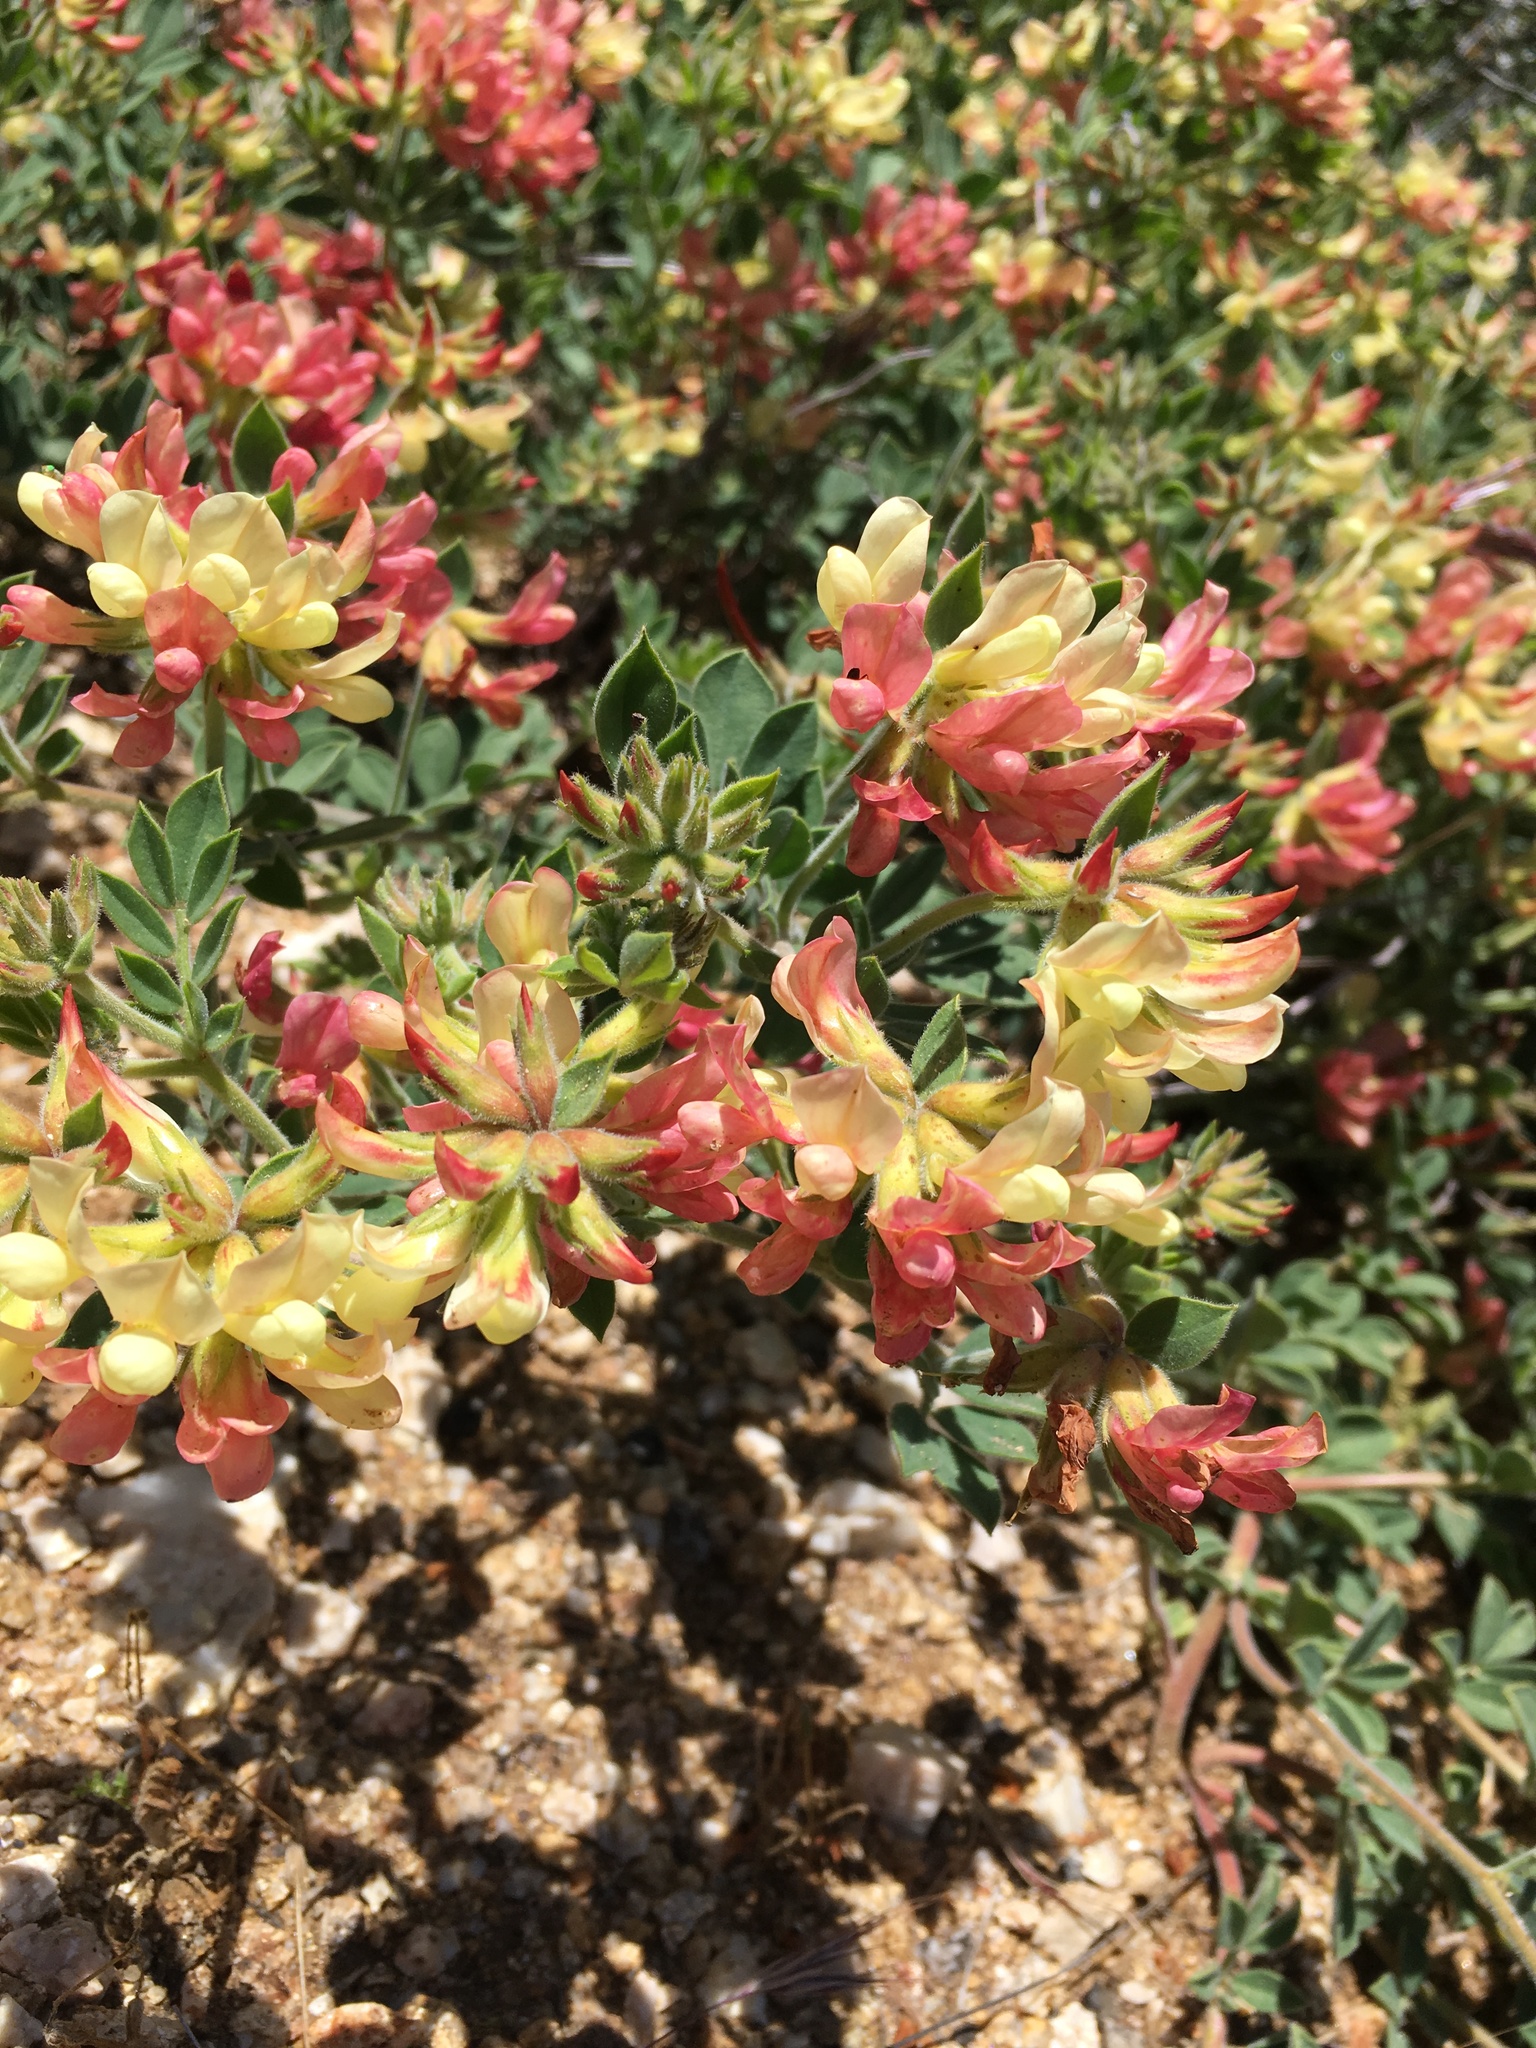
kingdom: Plantae
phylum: Tracheophyta
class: Magnoliopsida
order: Fabales
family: Fabaceae
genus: Acmispon
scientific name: Acmispon grandiflorus
